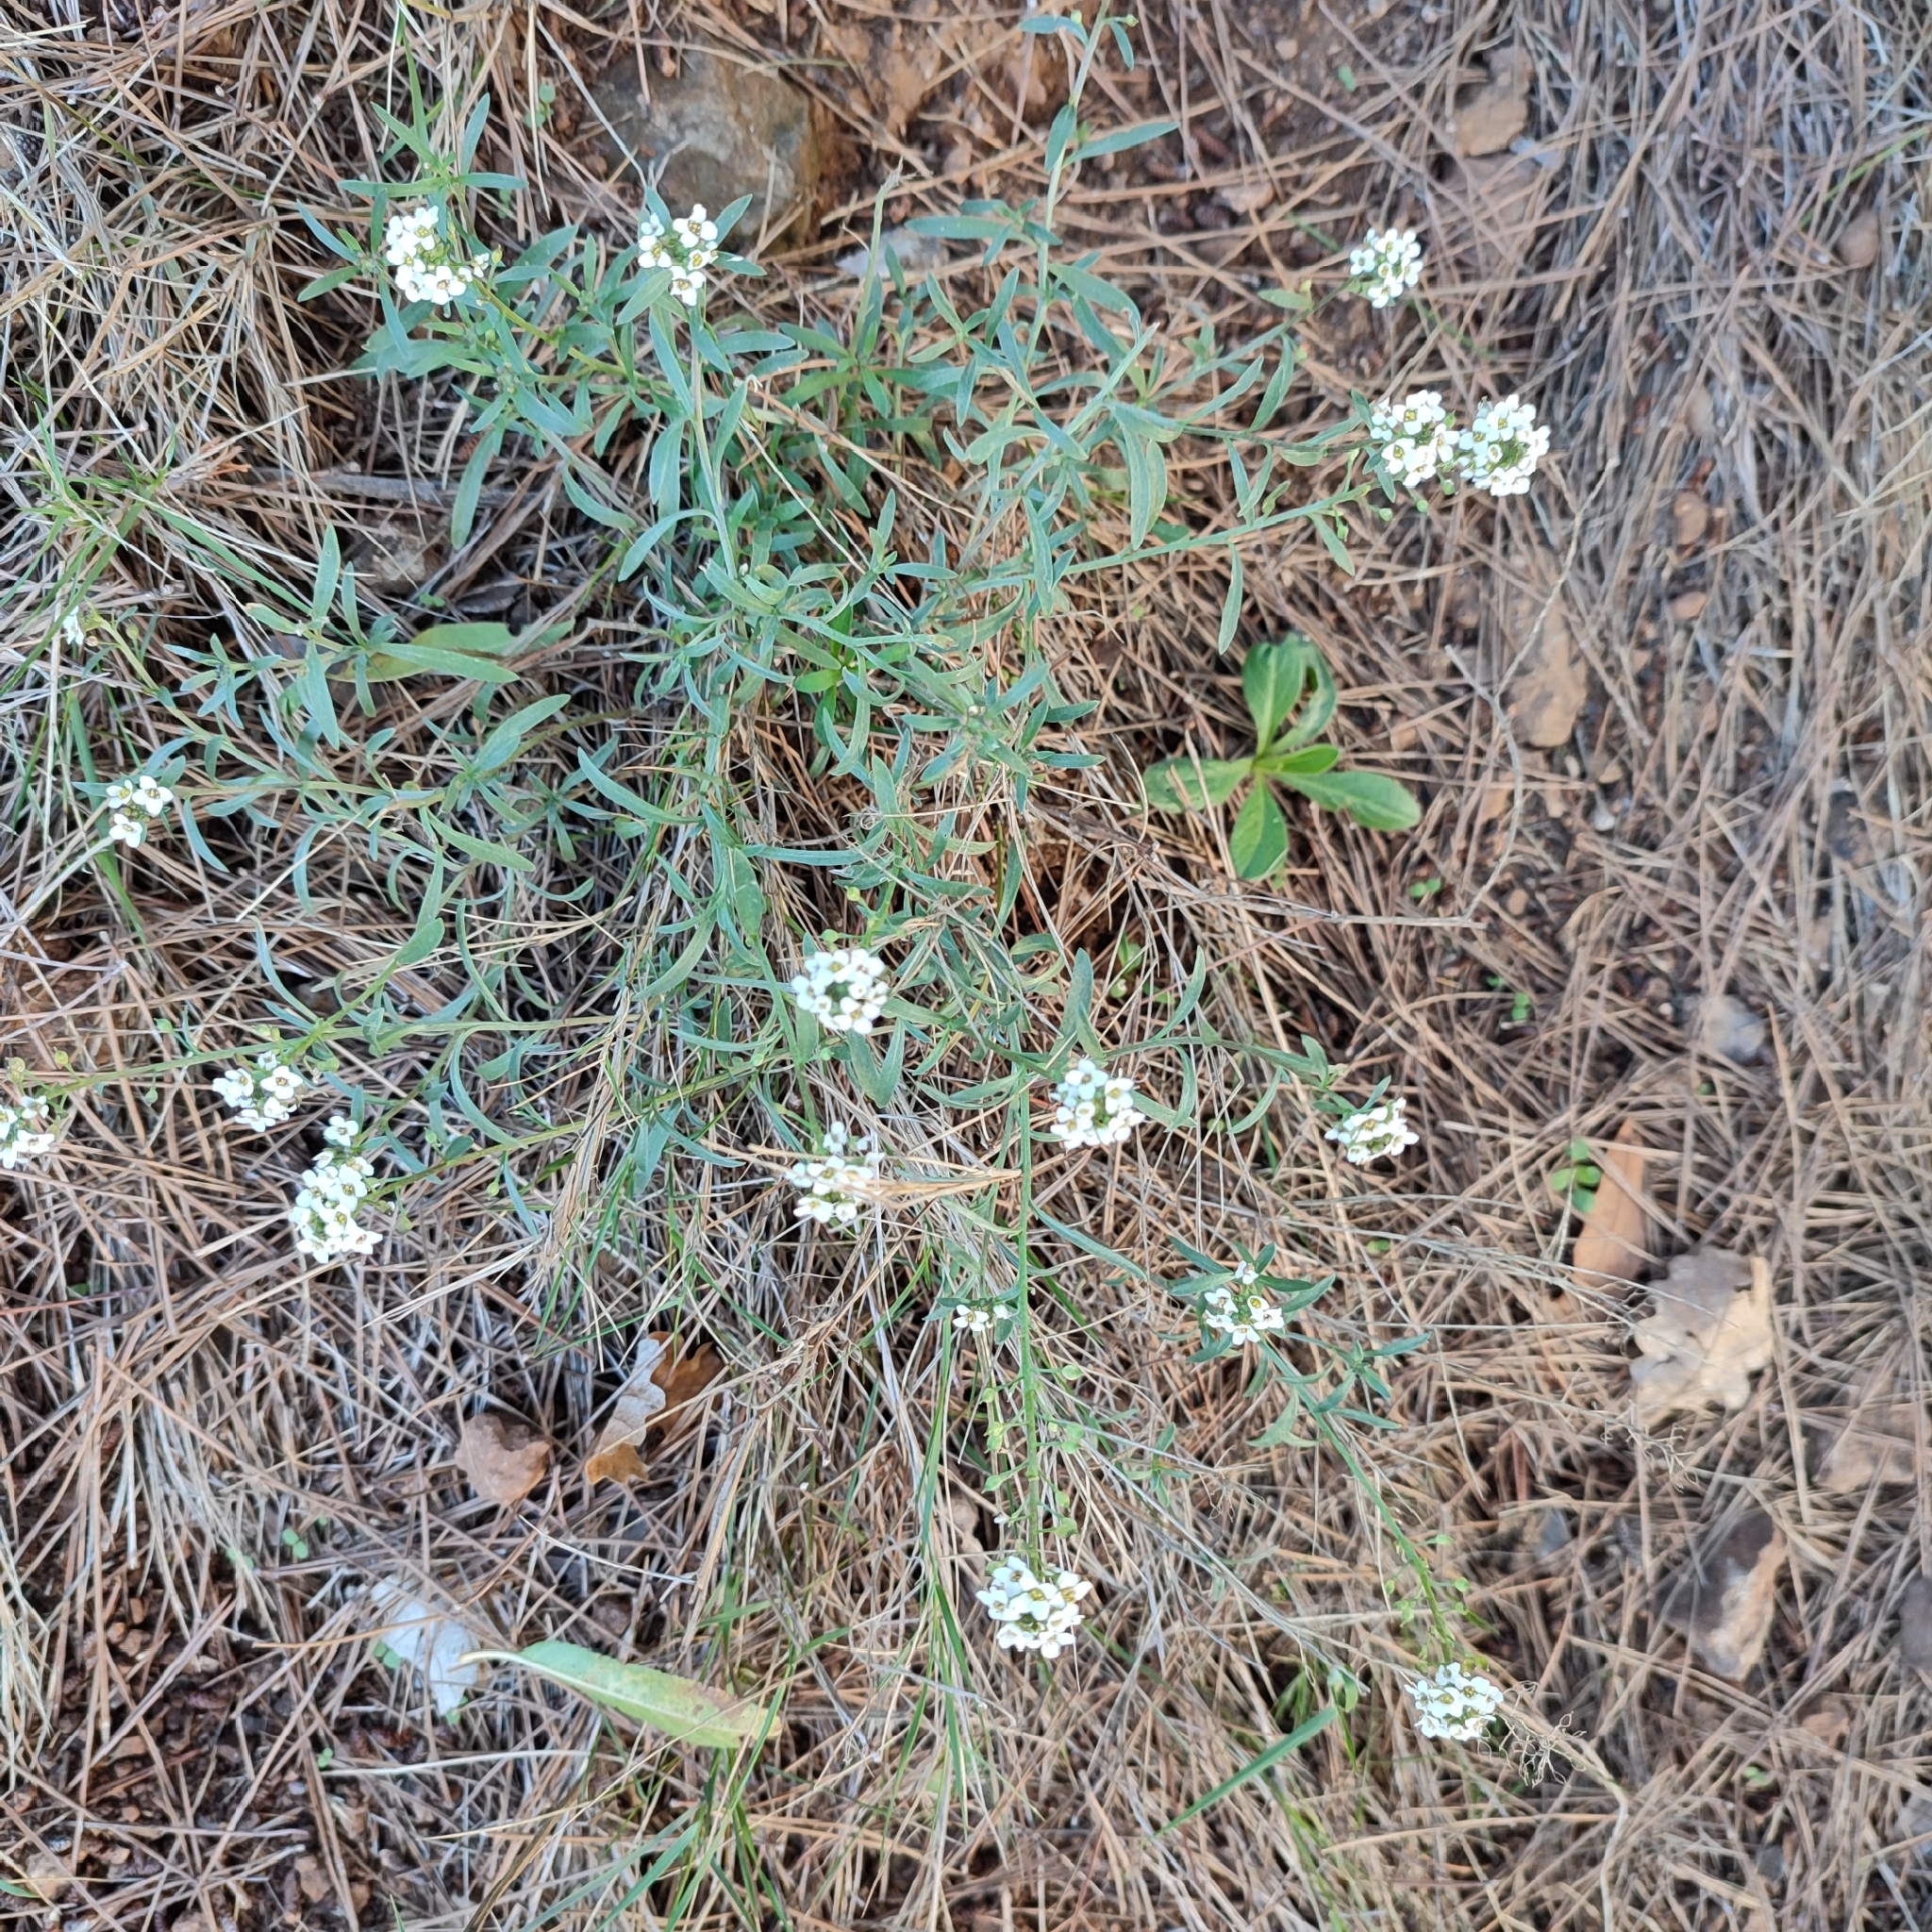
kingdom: Plantae
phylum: Tracheophyta
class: Magnoliopsida
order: Brassicales
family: Brassicaceae
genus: Lobularia
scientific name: Lobularia maritima
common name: Sweet alison
